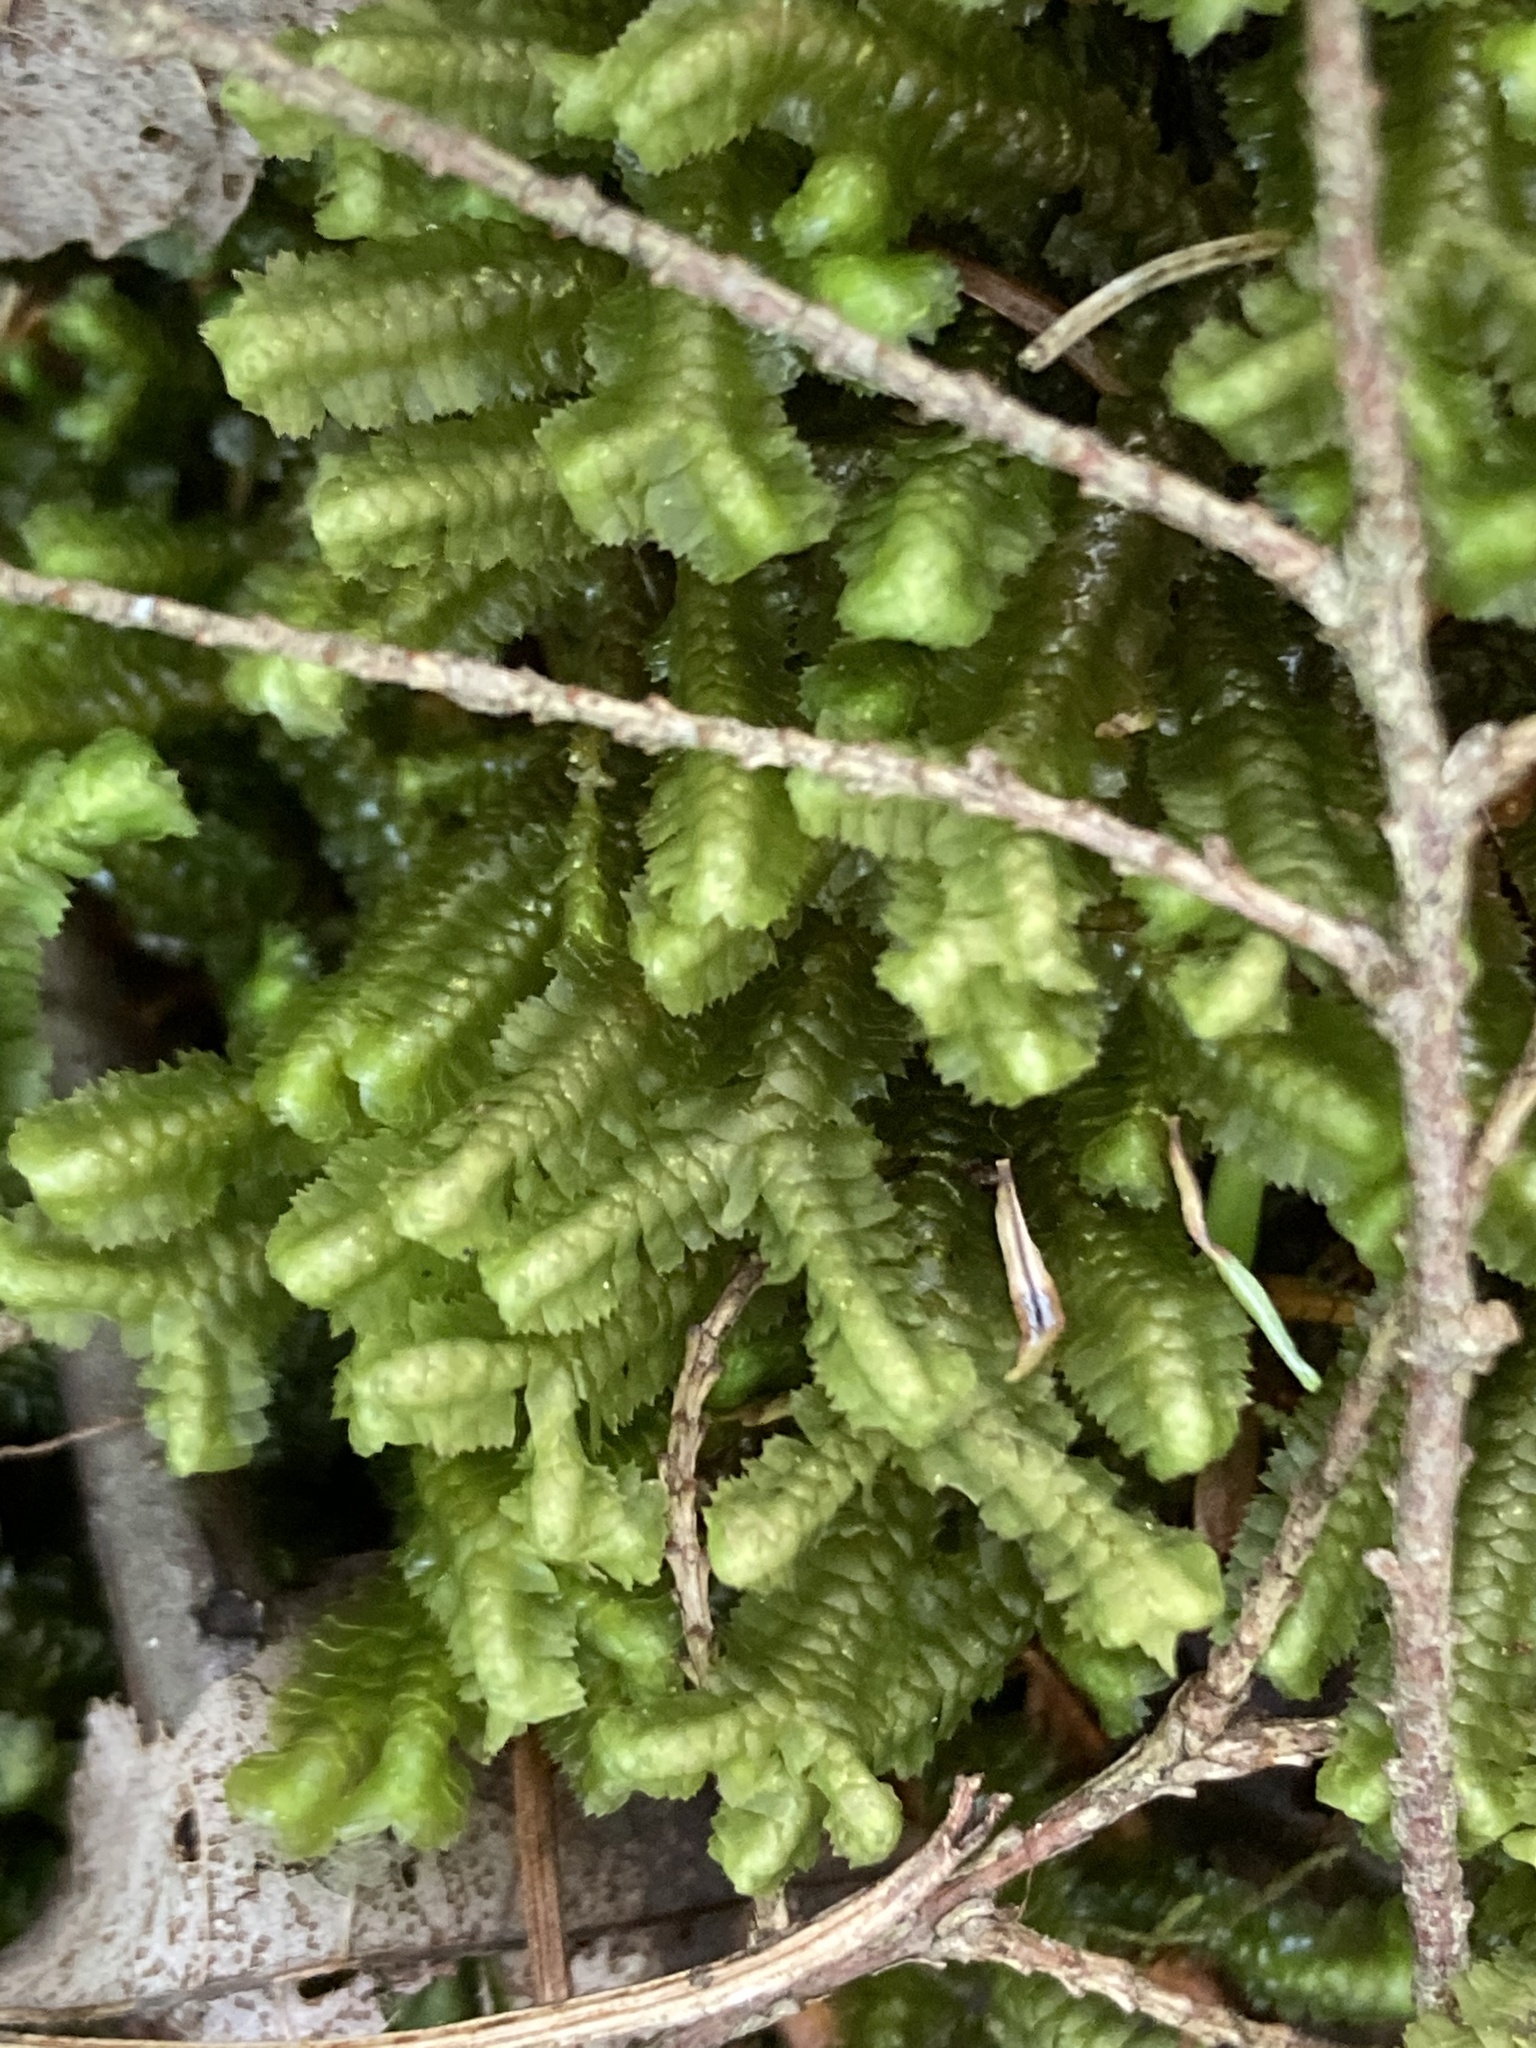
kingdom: Plantae
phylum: Marchantiophyta
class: Jungermanniopsida
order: Jungermanniales
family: Lepidoziaceae
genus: Bazzania
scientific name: Bazzania trilobata
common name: Three-lobed whipwort
